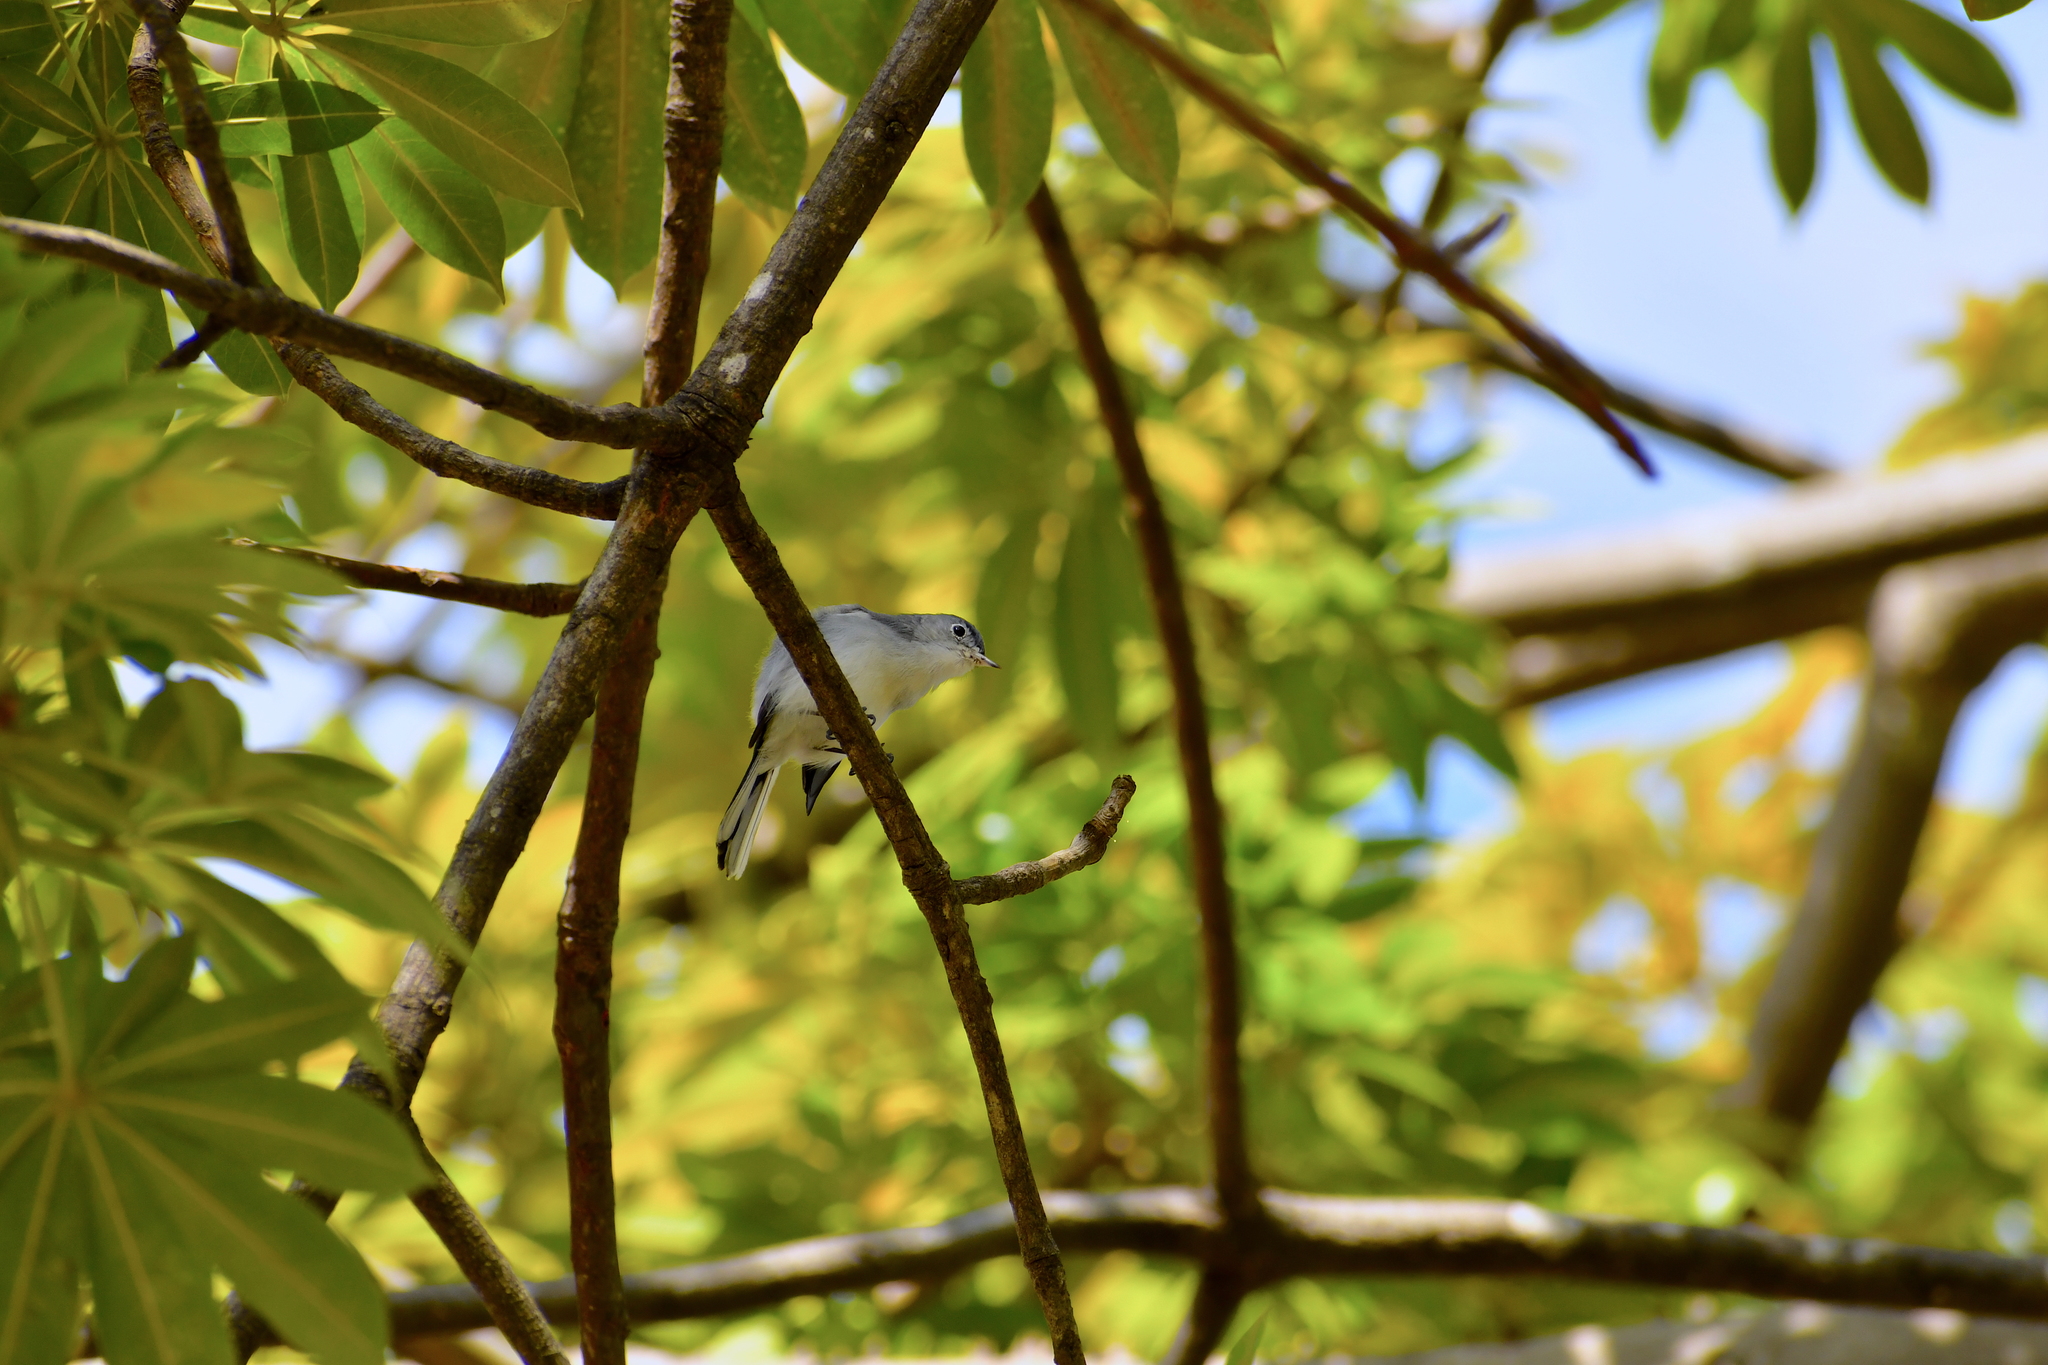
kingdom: Animalia
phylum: Chordata
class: Aves
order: Passeriformes
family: Polioptilidae
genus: Polioptila
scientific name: Polioptila caerulea
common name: Blue-gray gnatcatcher
